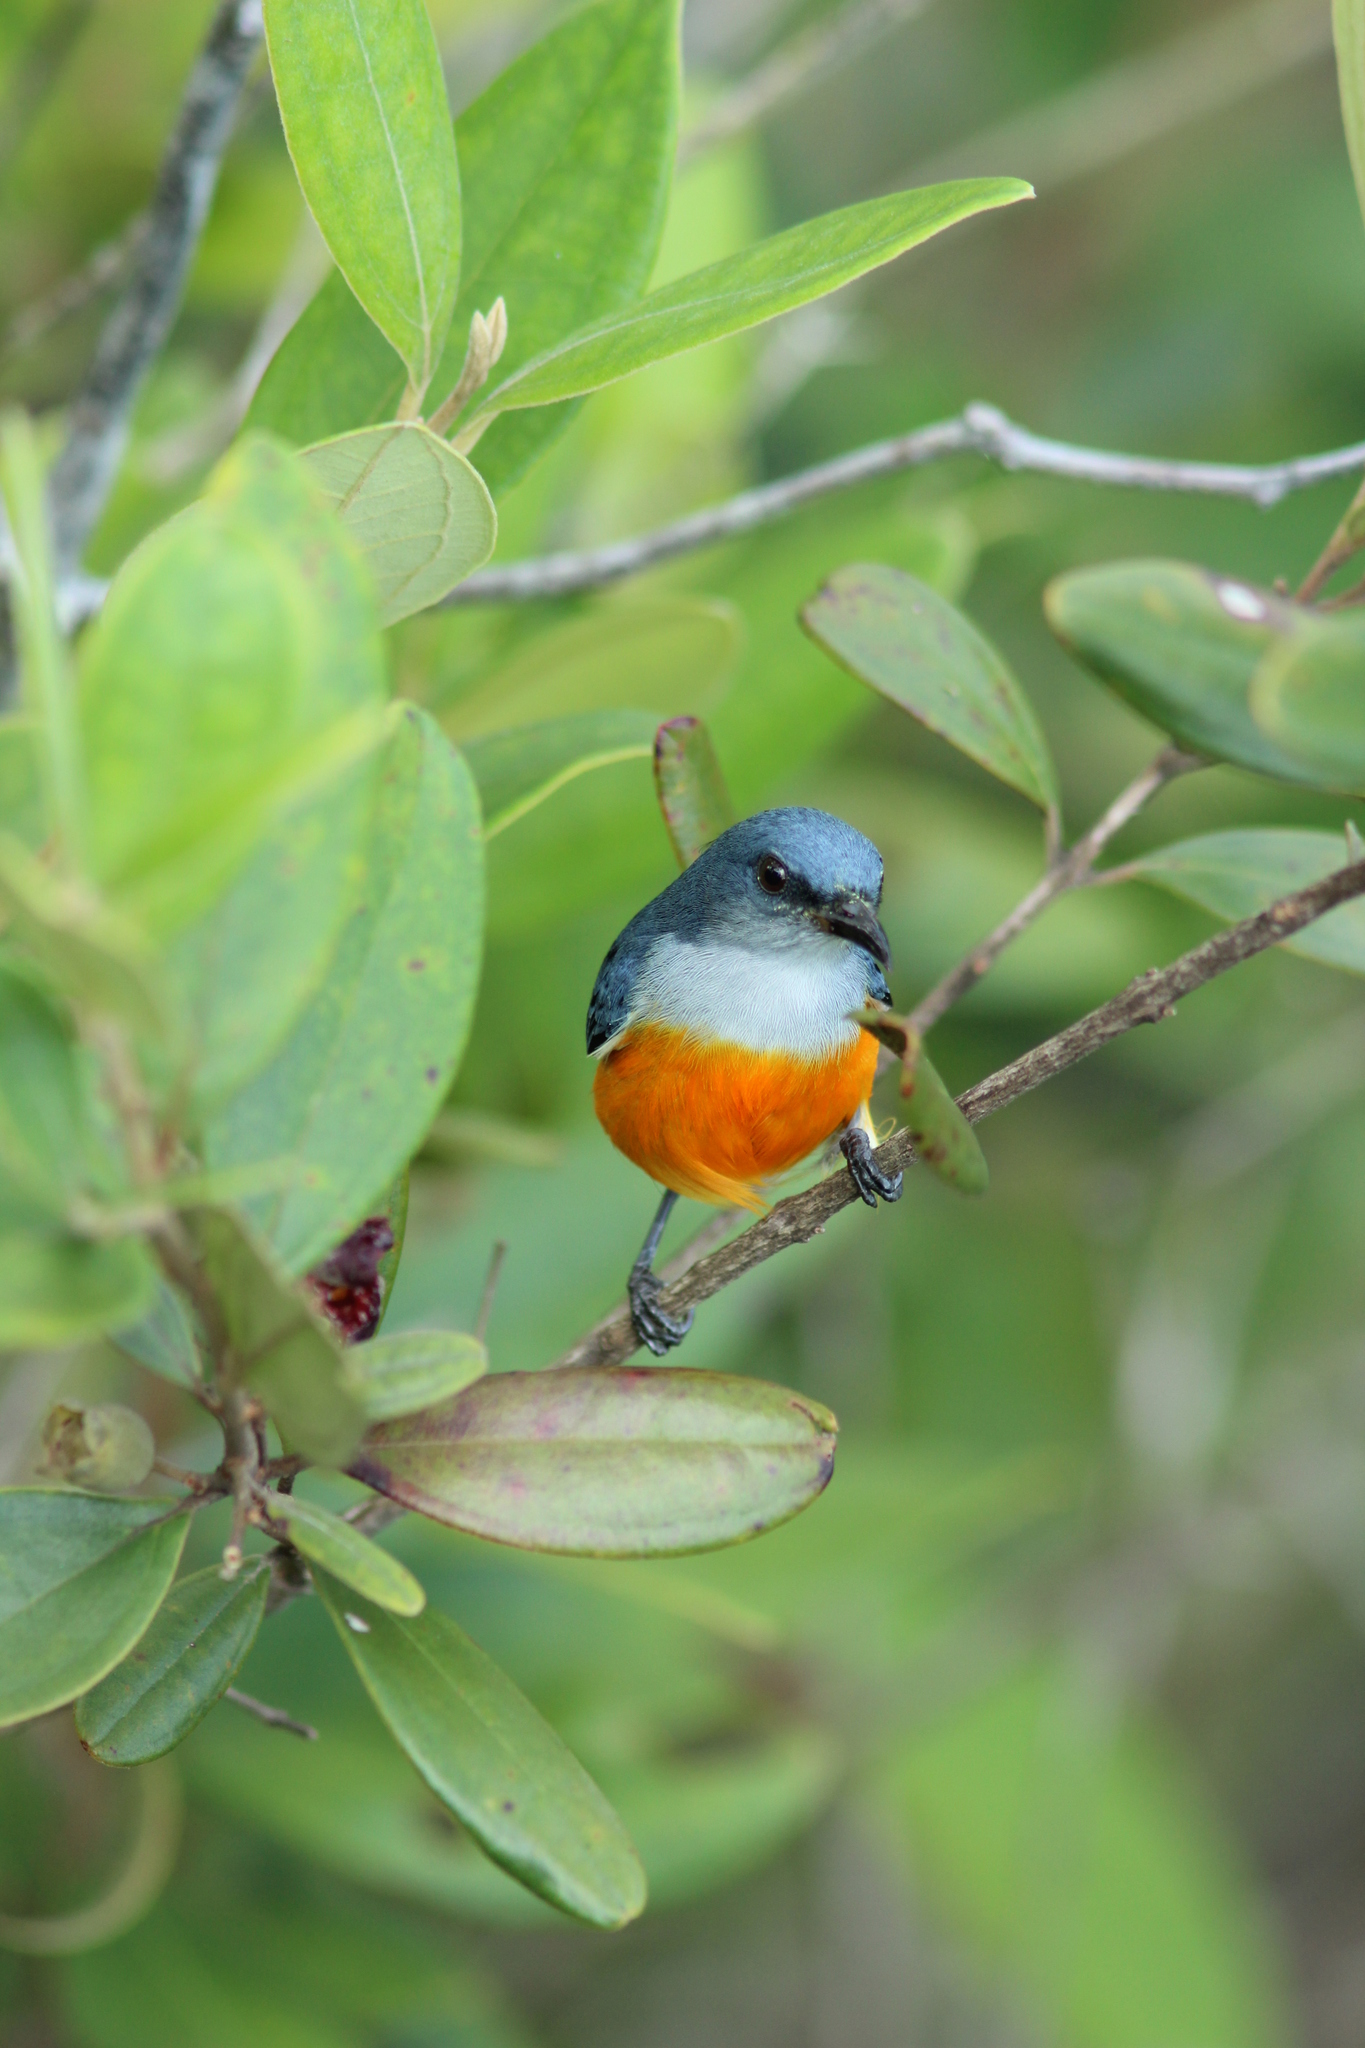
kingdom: Animalia
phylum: Chordata
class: Aves
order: Passeriformes
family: Dicaeidae
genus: Dicaeum
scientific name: Dicaeum trigonostigma
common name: Orange-bellied flowerpecker
